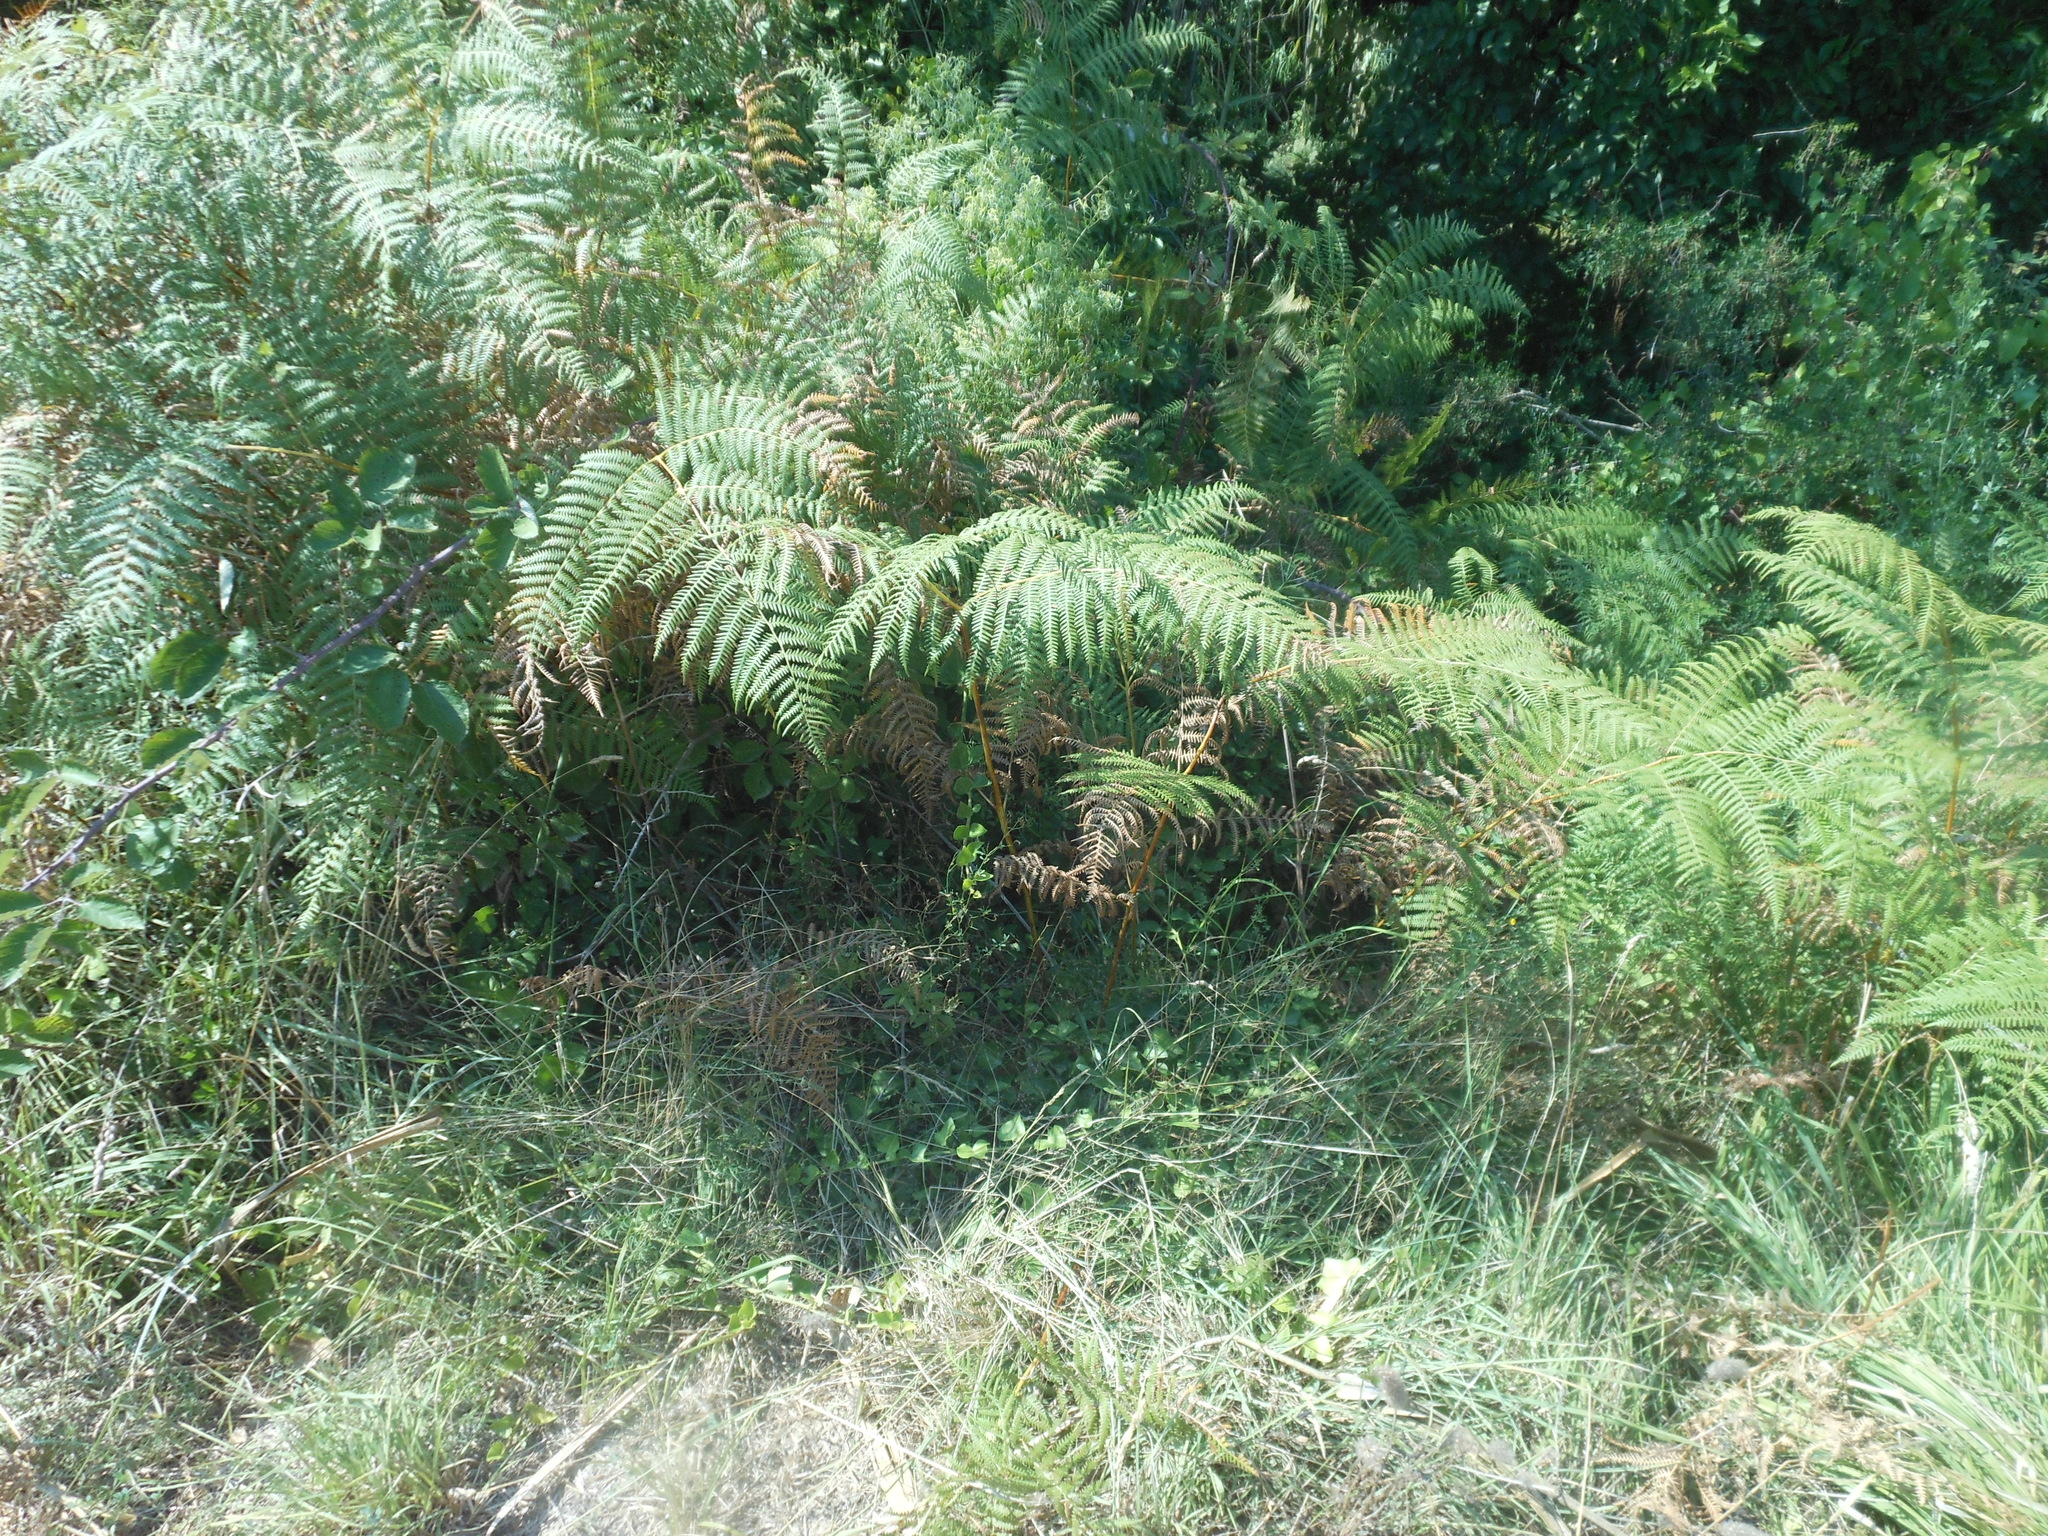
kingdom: Plantae
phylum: Tracheophyta
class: Polypodiopsida
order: Polypodiales
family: Dennstaedtiaceae
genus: Pteridium
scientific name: Pteridium aquilinum
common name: Bracken
